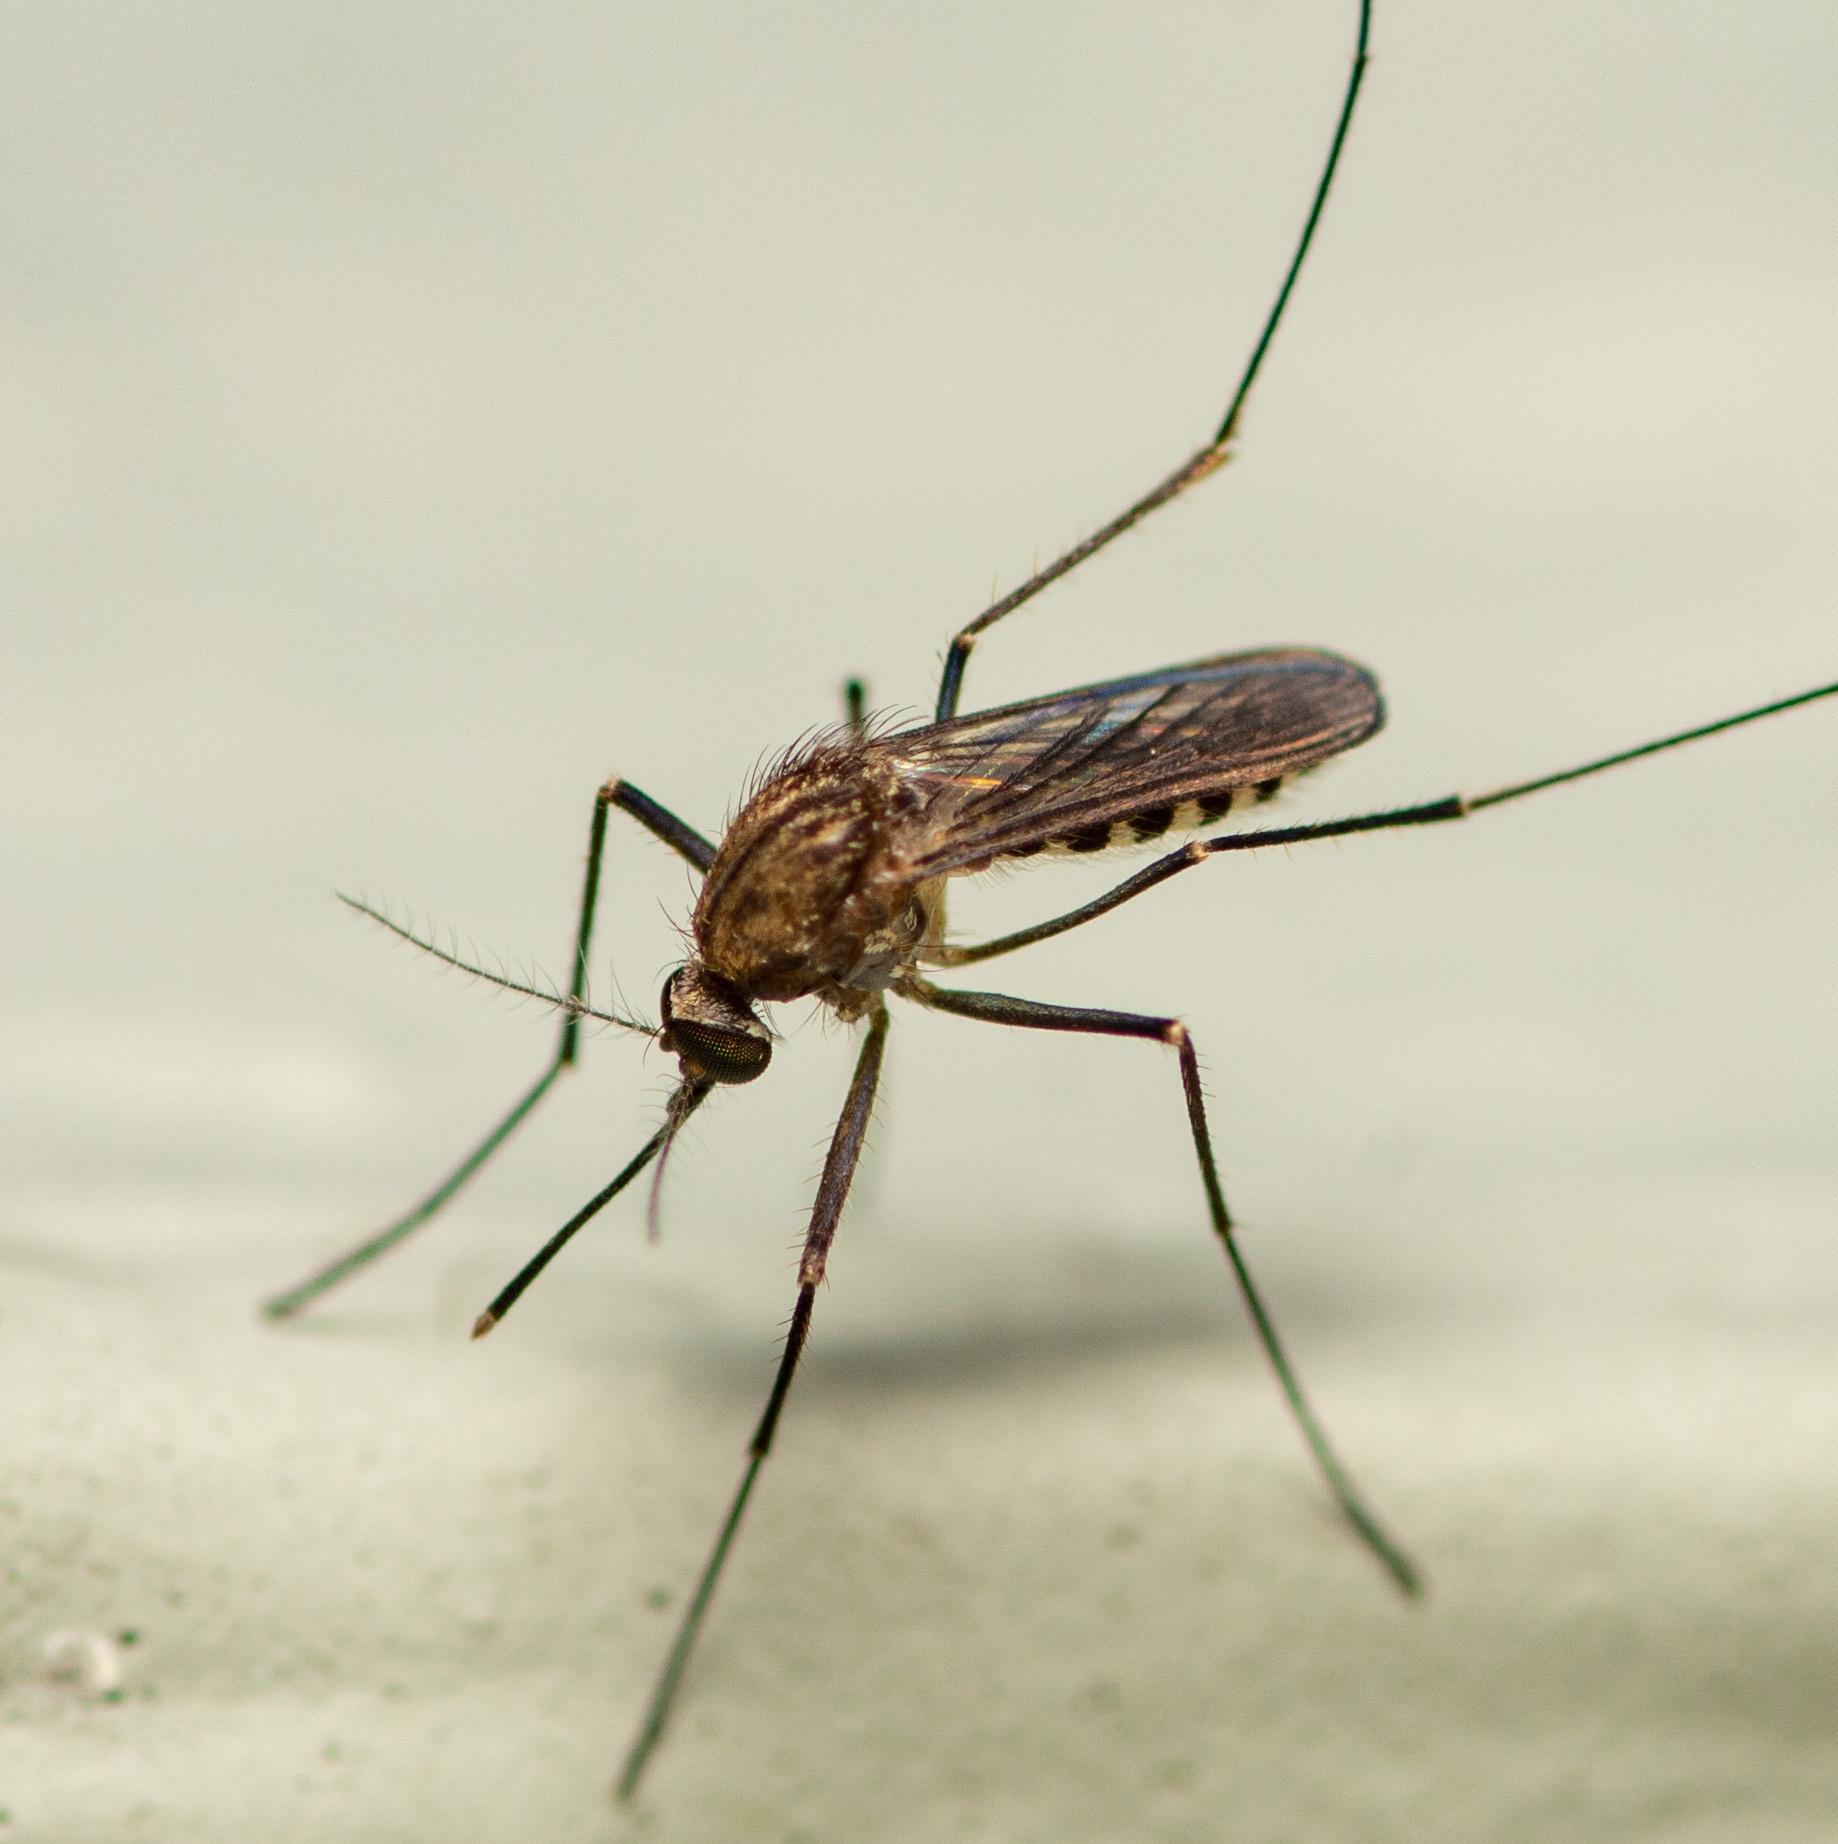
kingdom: Animalia
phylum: Arthropoda
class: Insecta
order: Diptera
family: Culicidae
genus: Culex
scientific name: Culex erraticus
